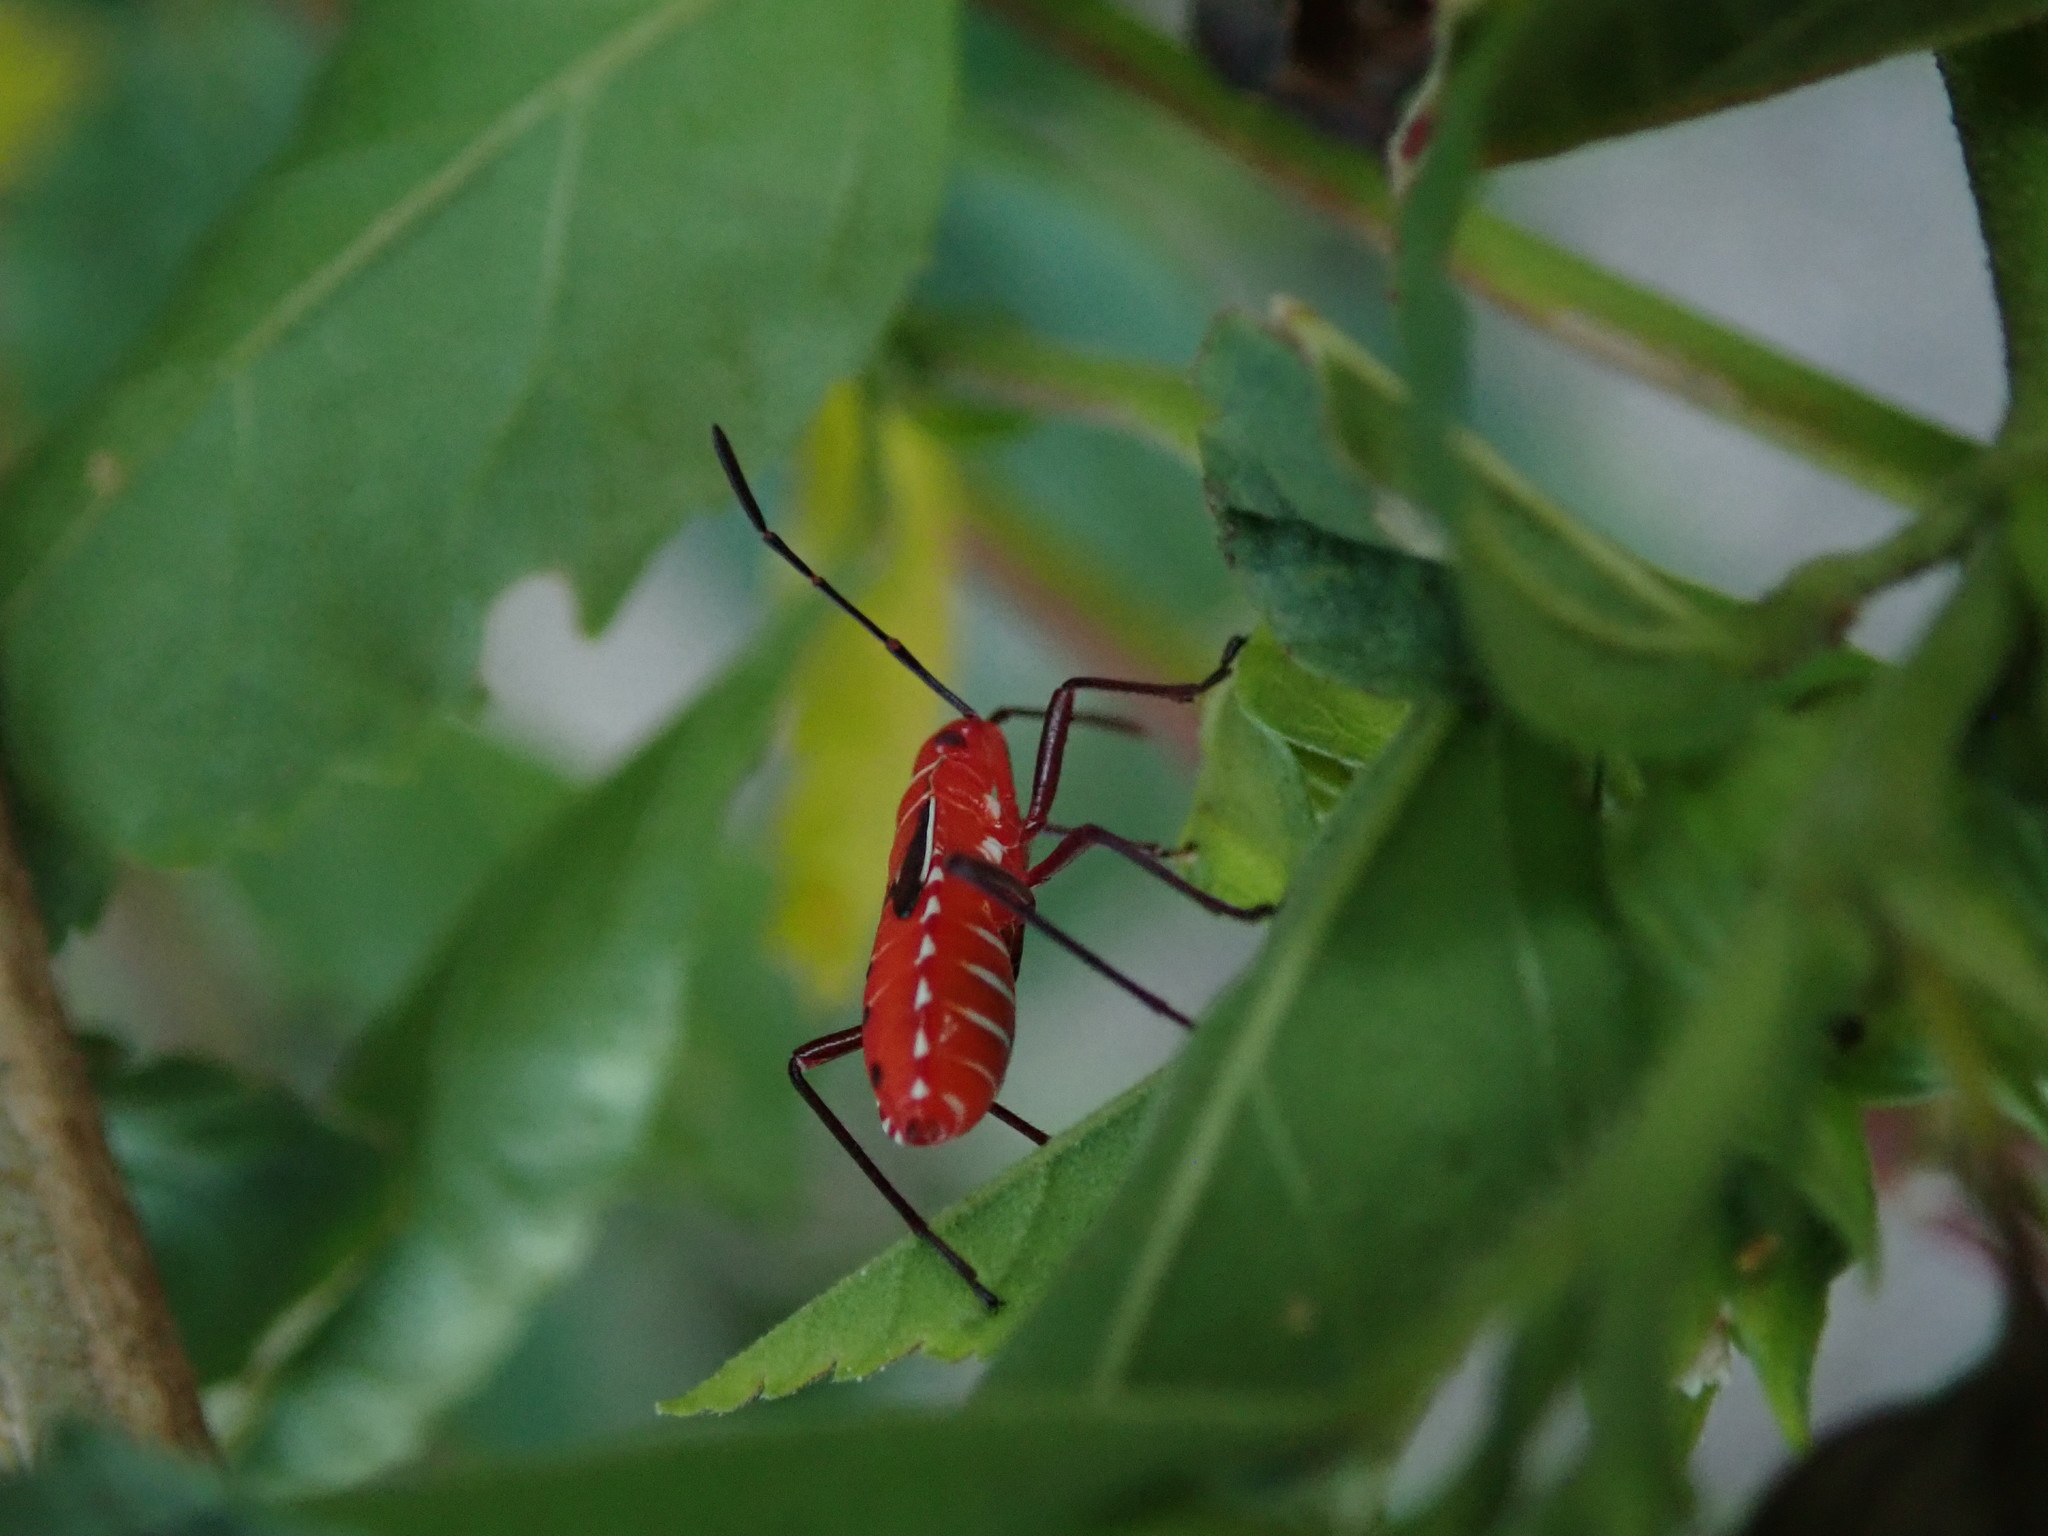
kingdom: Animalia
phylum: Arthropoda
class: Insecta
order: Hemiptera
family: Pyrrhocoridae
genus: Dysdercus
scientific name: Dysdercus andreae
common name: St. andrew's cotton stainer
